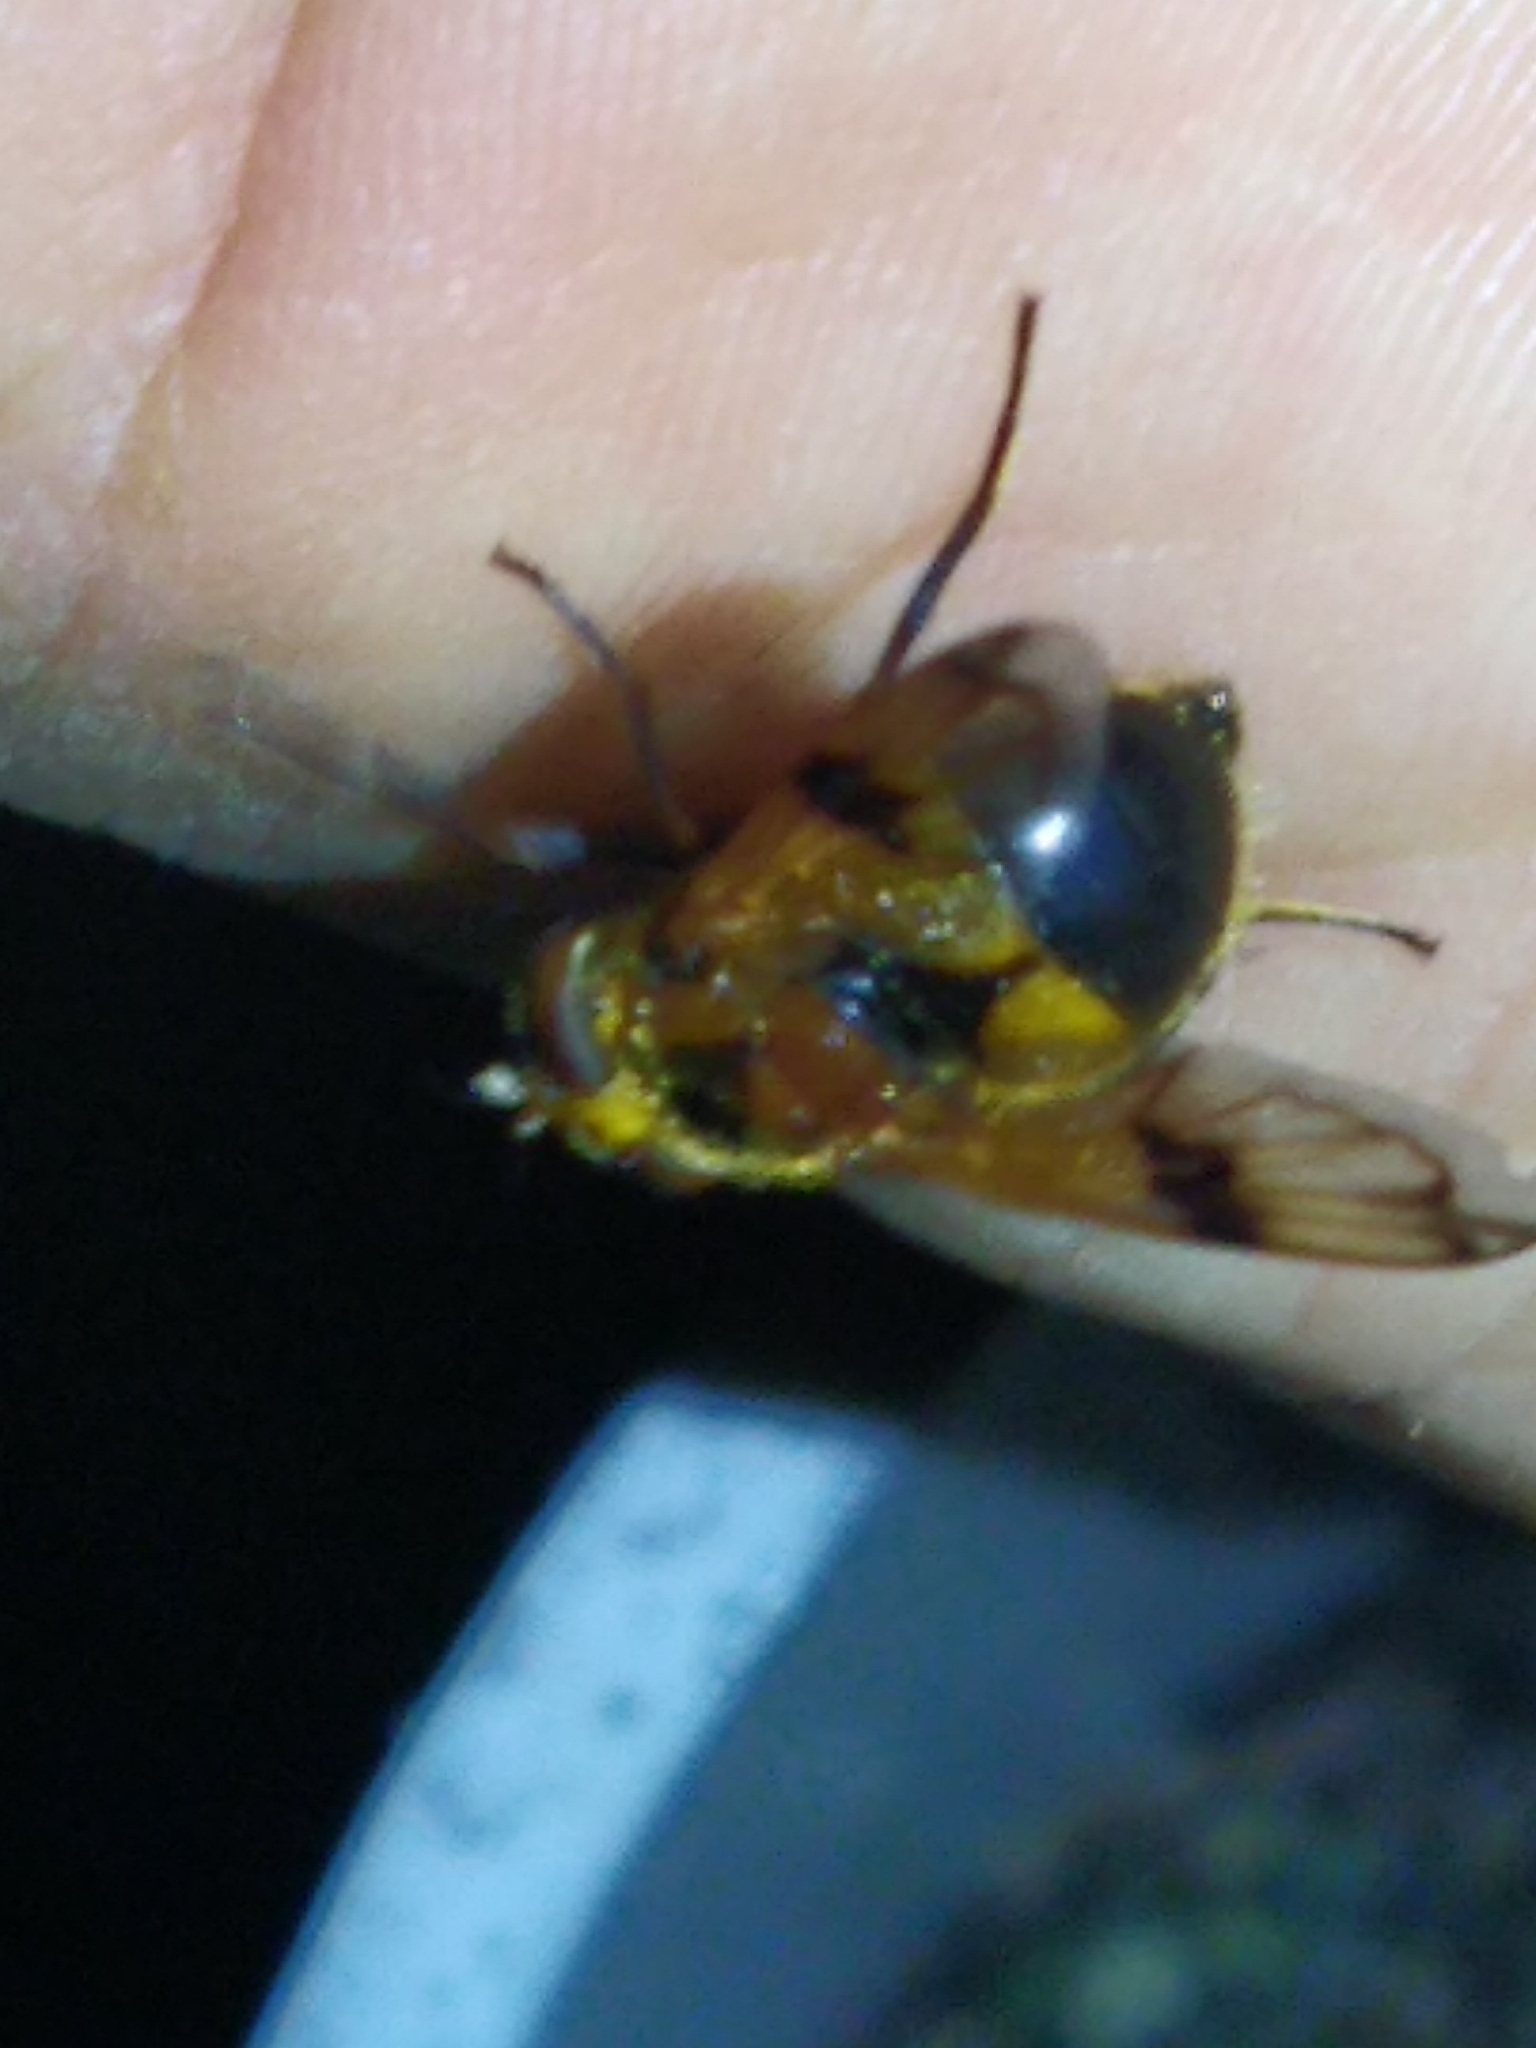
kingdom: Animalia
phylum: Arthropoda
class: Insecta
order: Diptera
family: Syrphidae
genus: Volucella
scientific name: Volucella inflata
